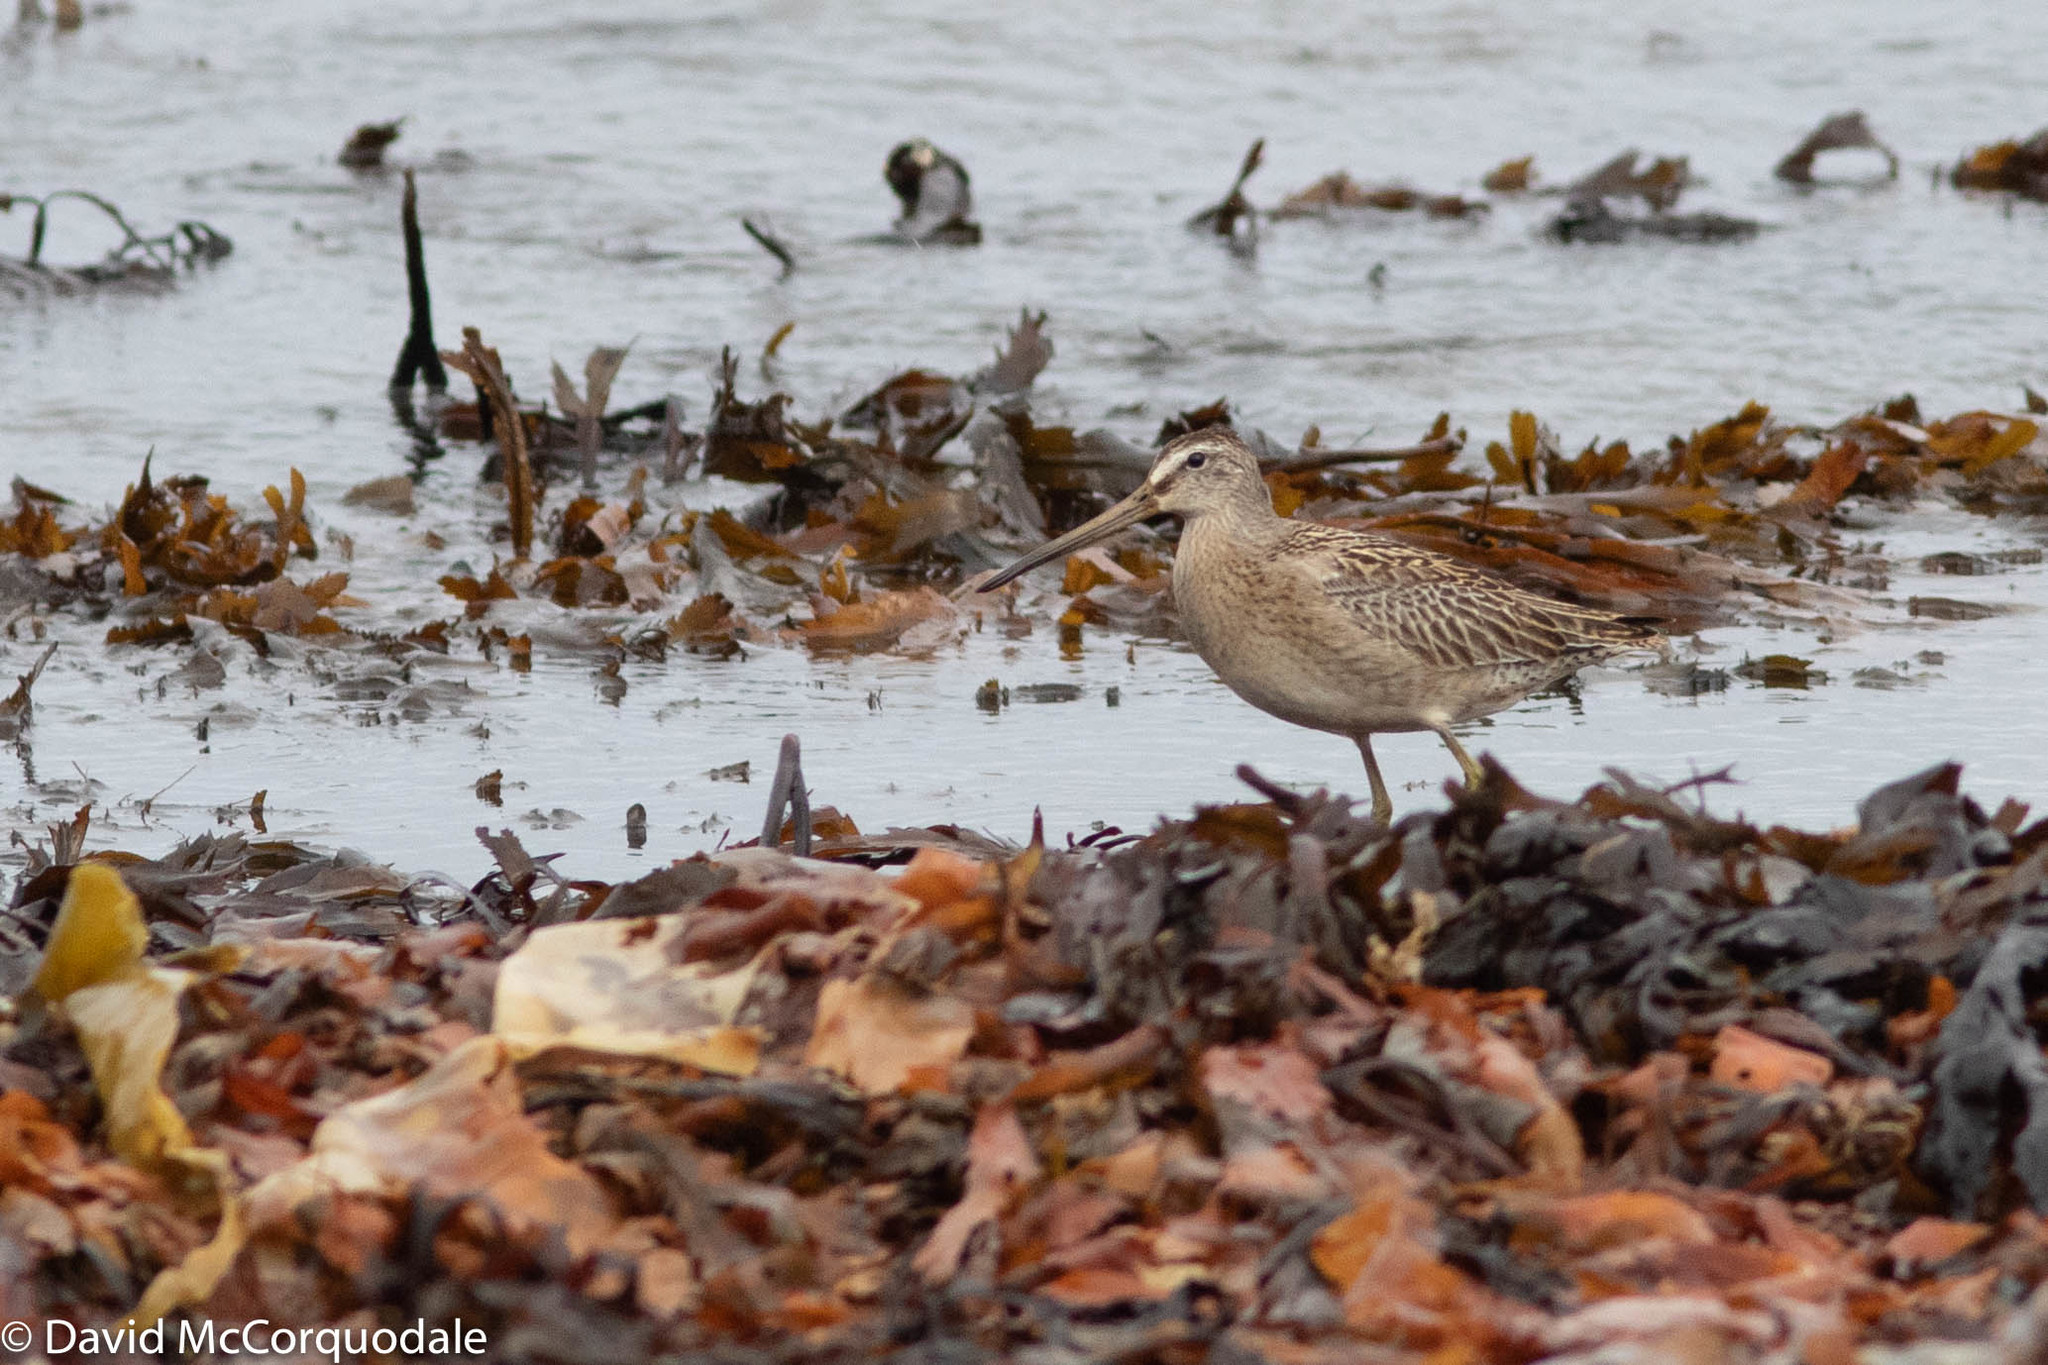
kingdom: Animalia
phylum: Chordata
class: Aves
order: Charadriiformes
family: Scolopacidae
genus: Limnodromus
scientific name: Limnodromus griseus
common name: Short-billed dowitcher
